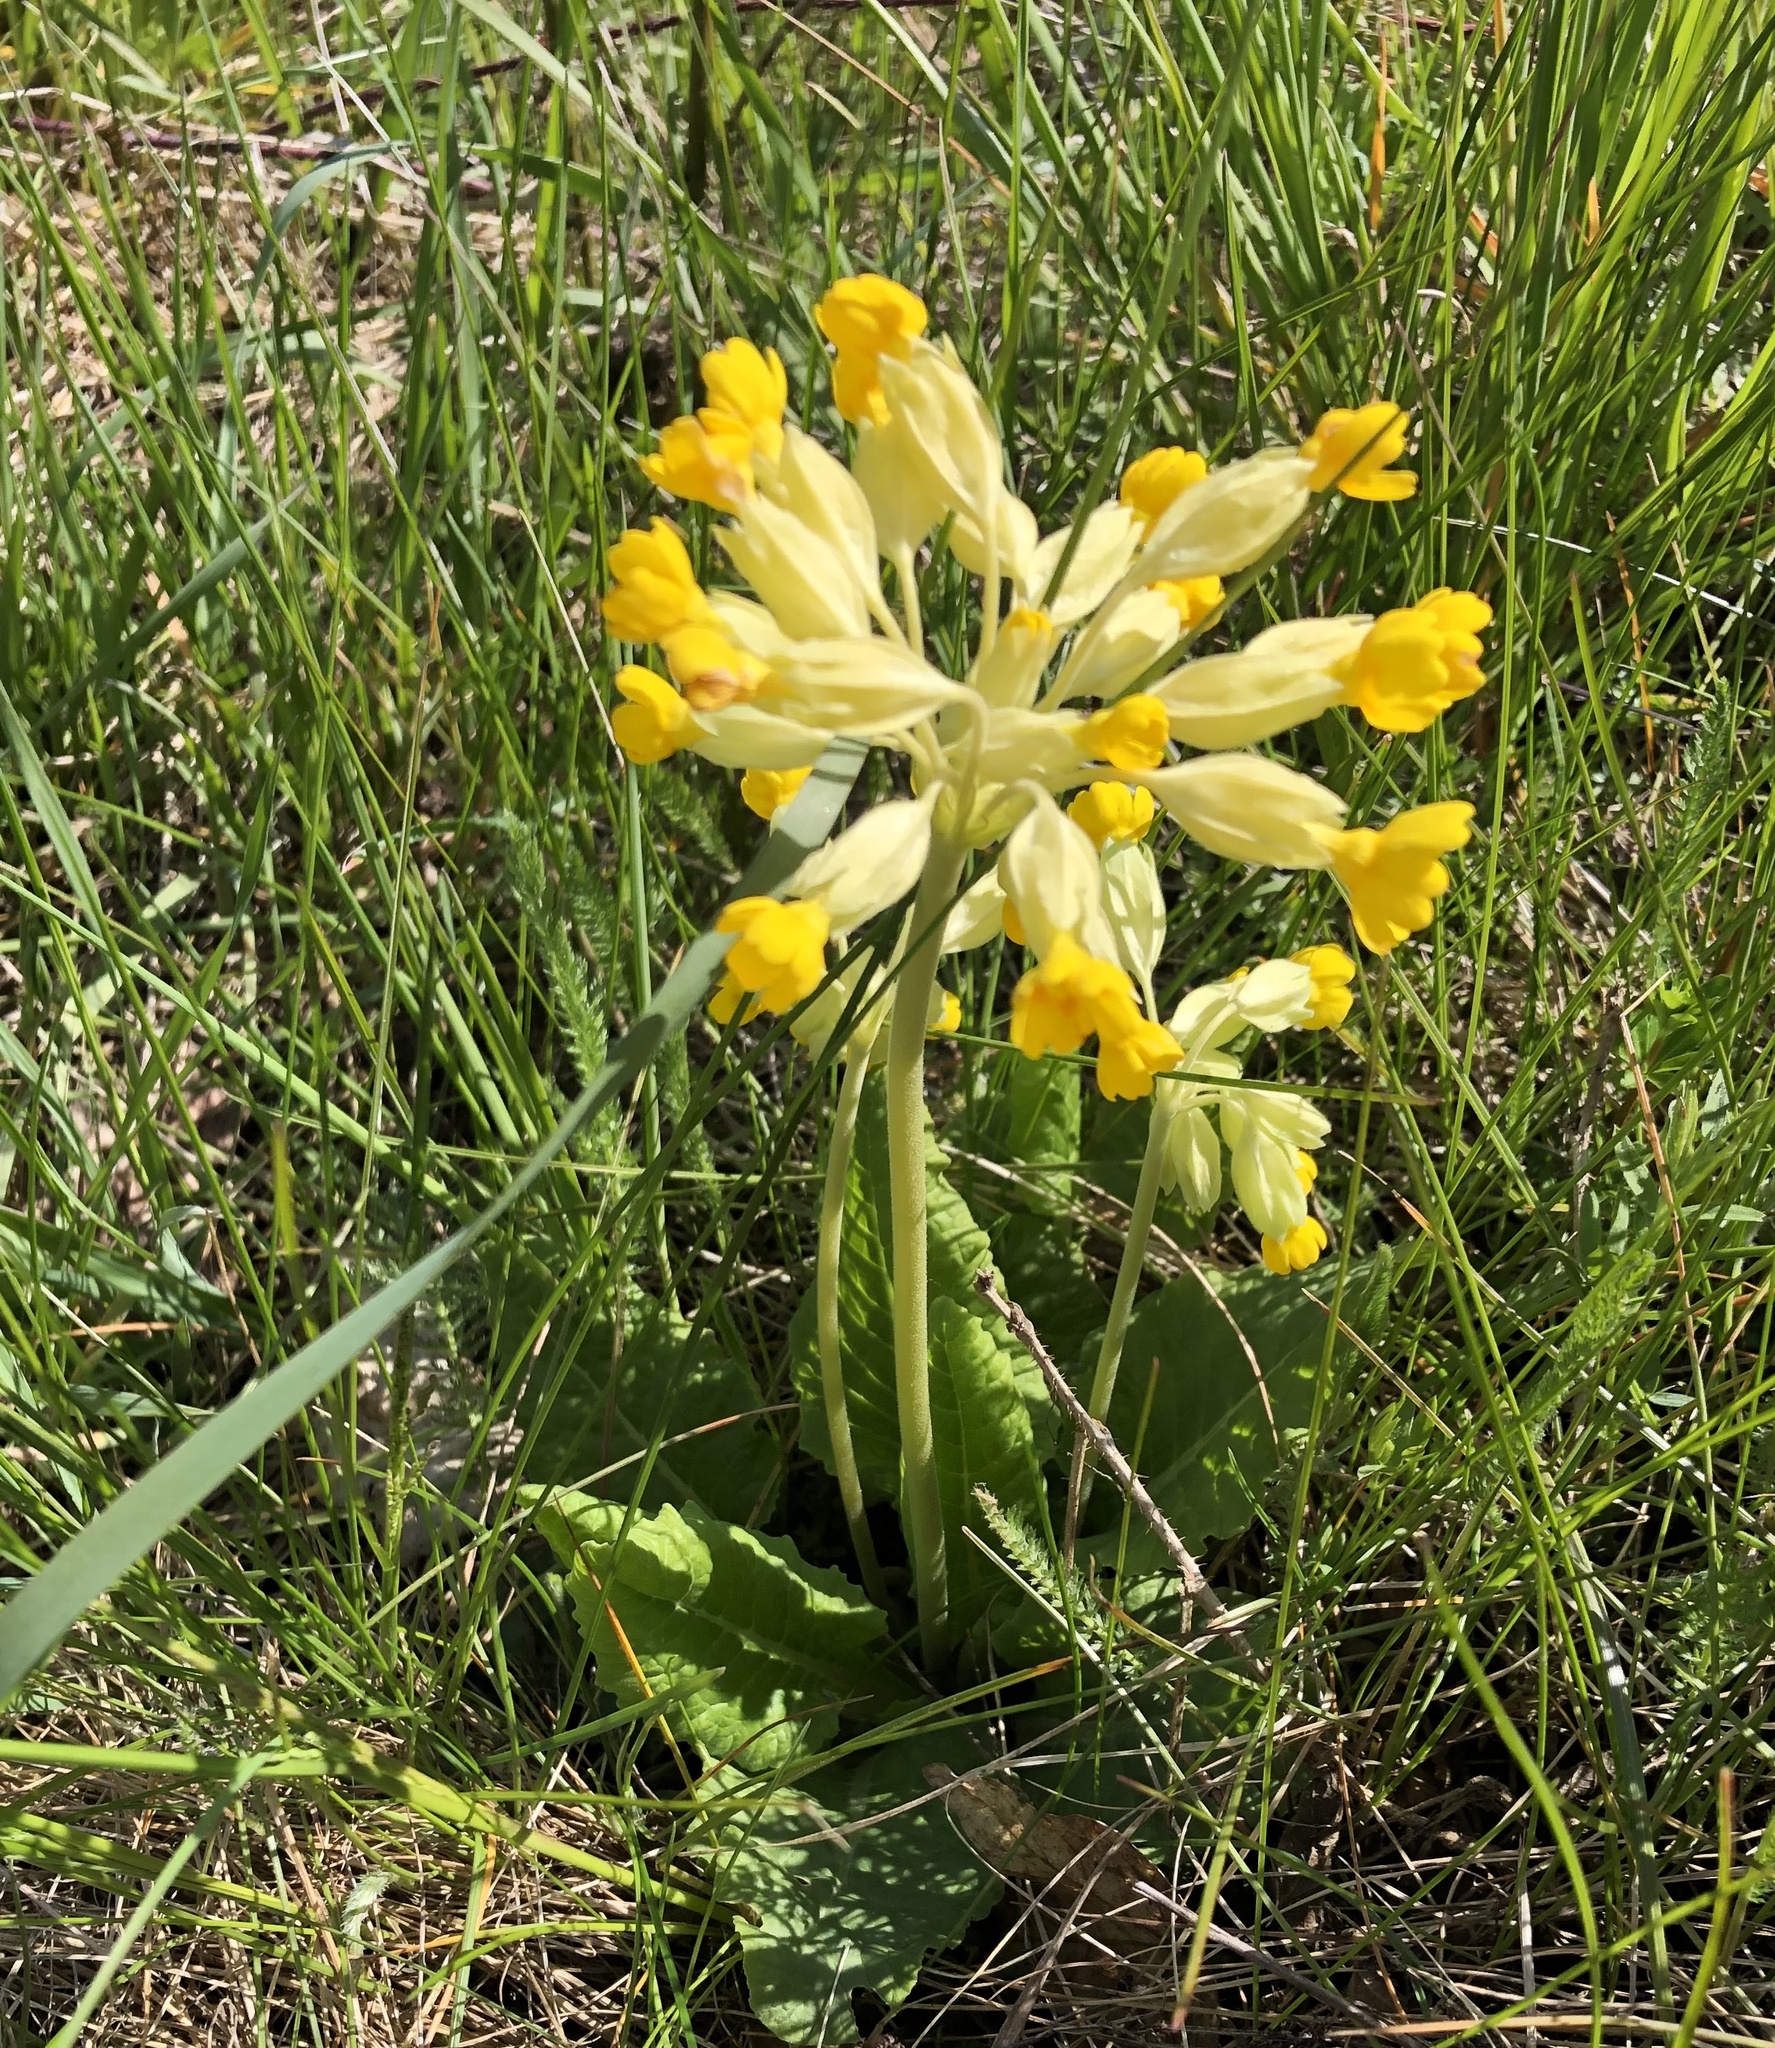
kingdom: Plantae
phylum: Tracheophyta
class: Magnoliopsida
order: Ericales
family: Primulaceae
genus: Primula
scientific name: Primula veris
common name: Cowslip
